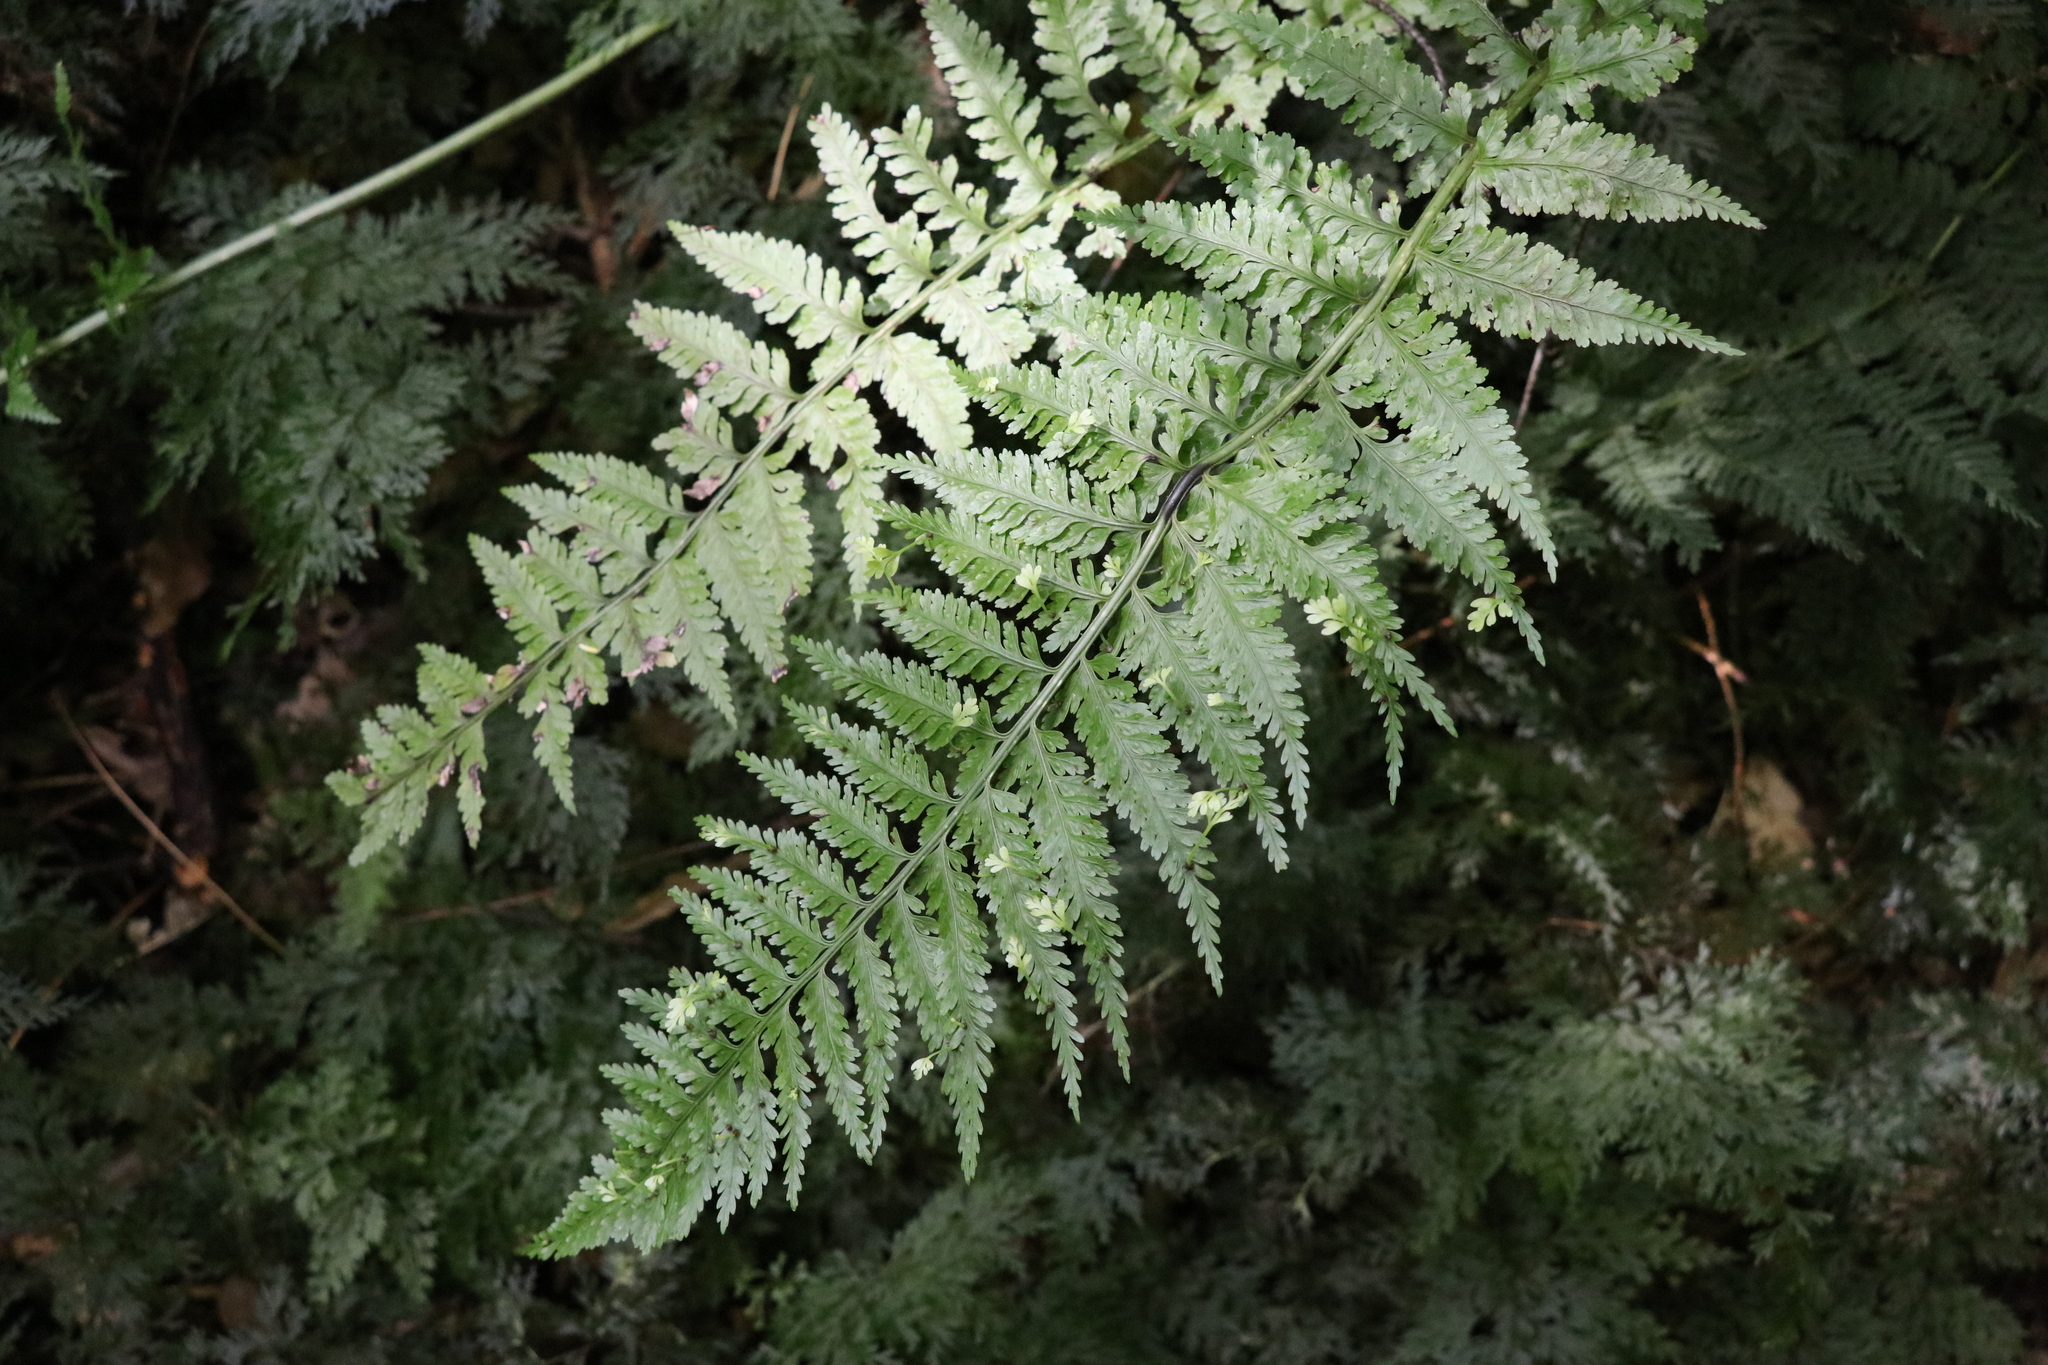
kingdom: Plantae
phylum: Tracheophyta
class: Polypodiopsida
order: Polypodiales
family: Aspleniaceae
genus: Asplenium
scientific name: Asplenium bulbiferum
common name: Mother fern
